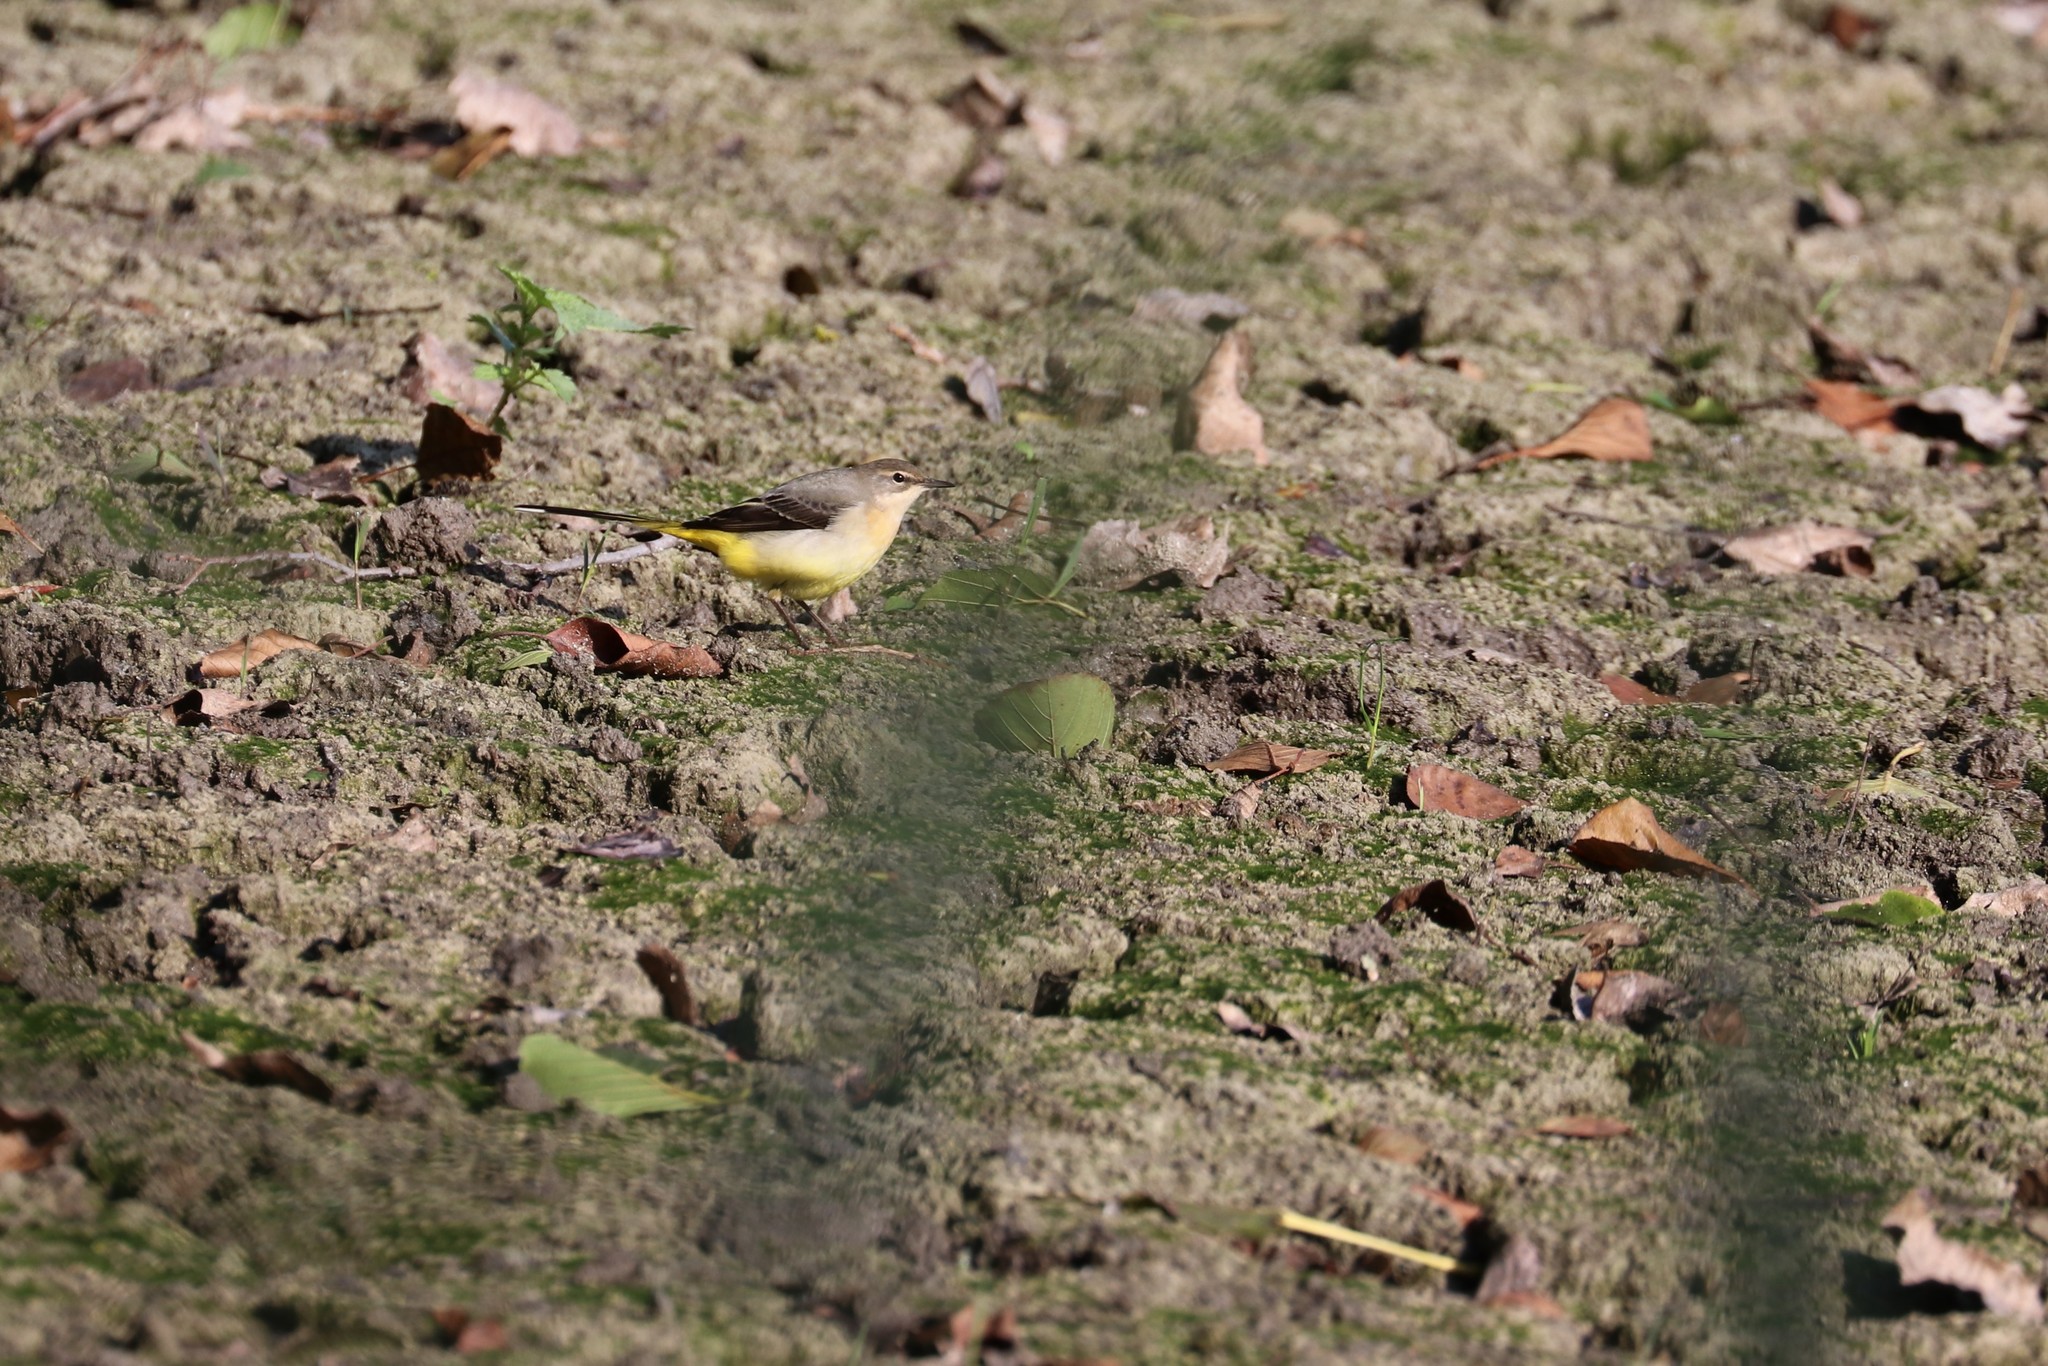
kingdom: Animalia
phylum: Chordata
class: Aves
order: Passeriformes
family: Motacillidae
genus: Motacilla
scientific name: Motacilla cinerea
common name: Grey wagtail
